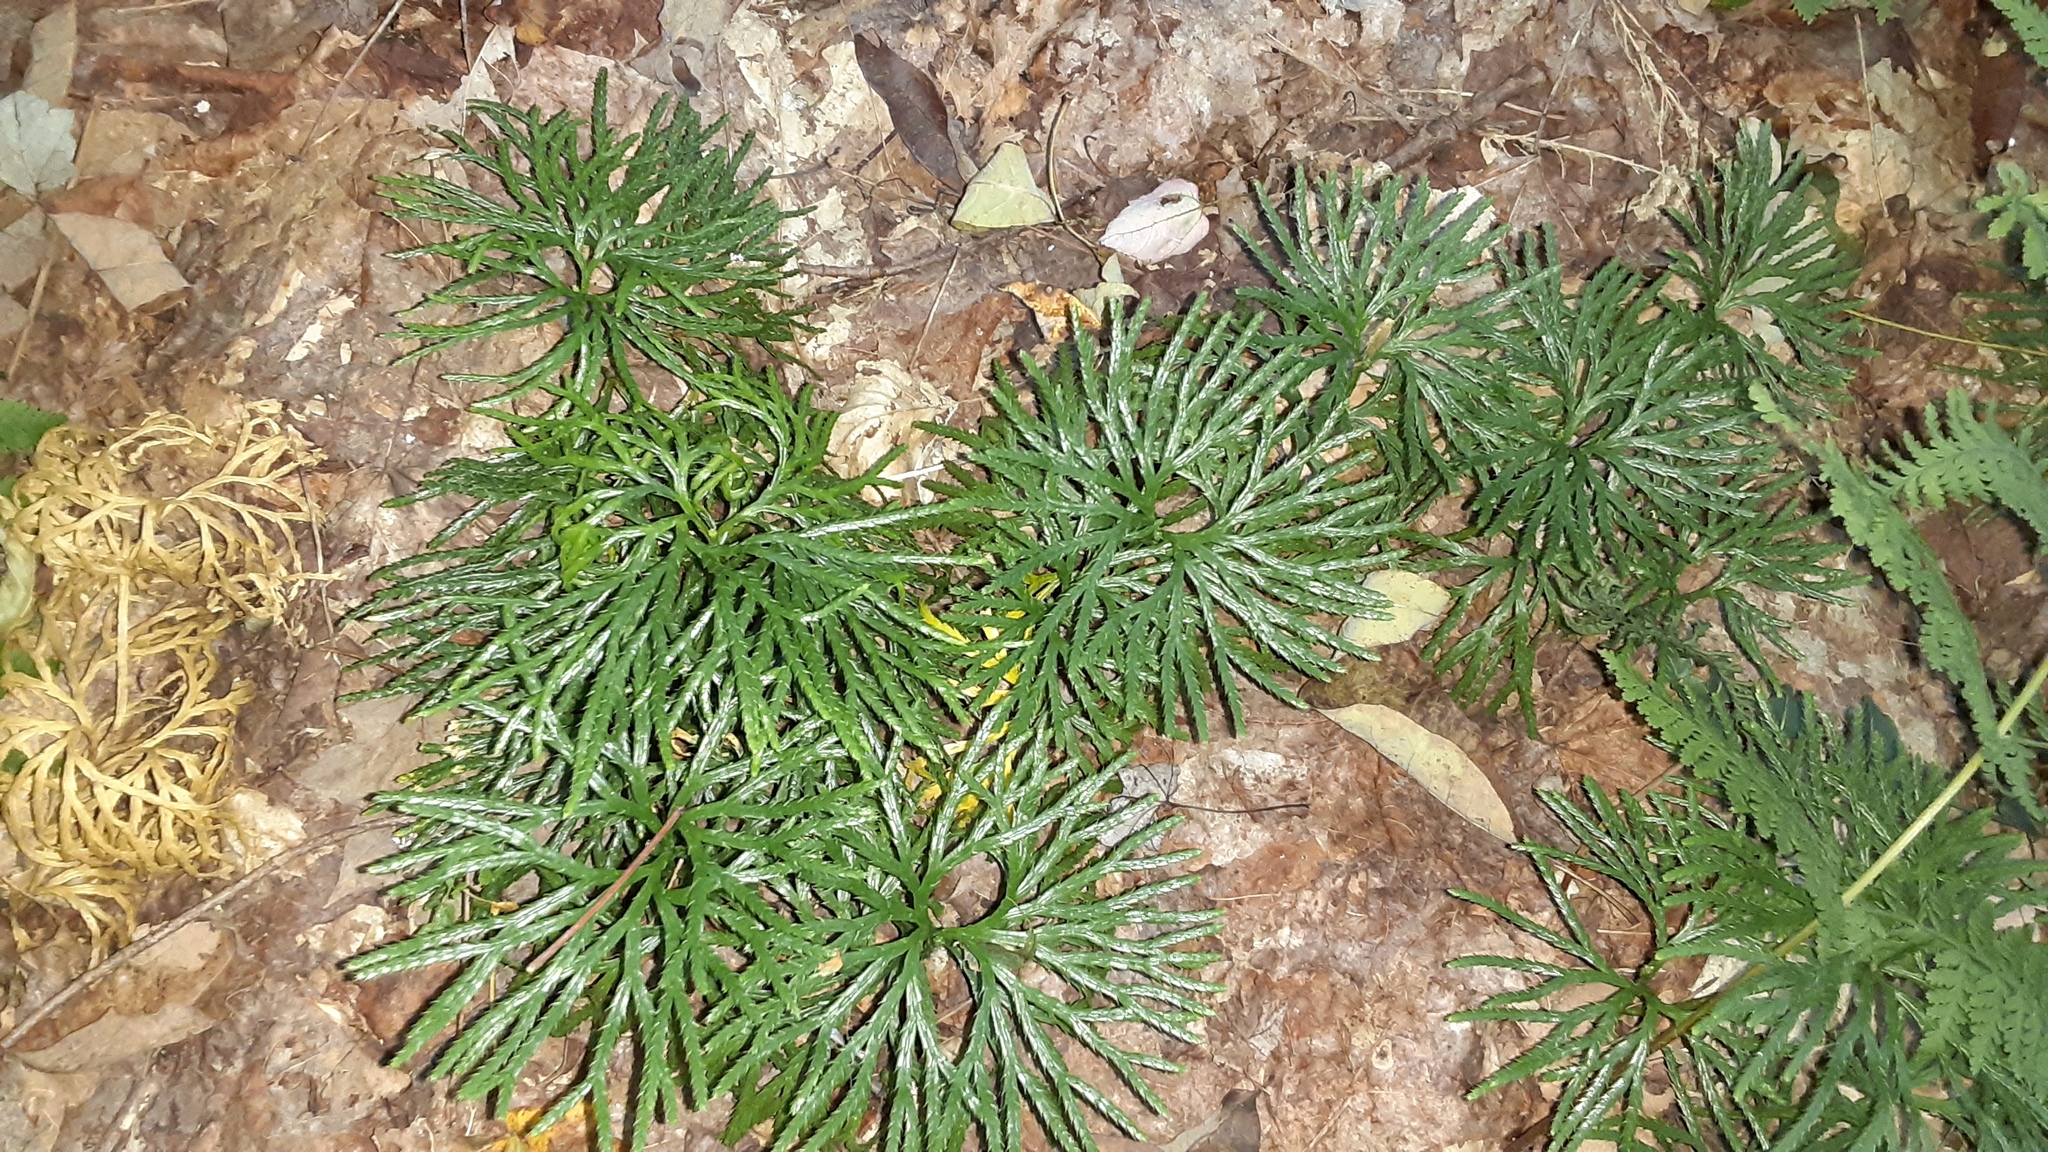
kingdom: Plantae
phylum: Tracheophyta
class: Lycopodiopsida
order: Lycopodiales
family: Lycopodiaceae
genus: Diphasiastrum
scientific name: Diphasiastrum digitatum
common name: Southern running-pine
